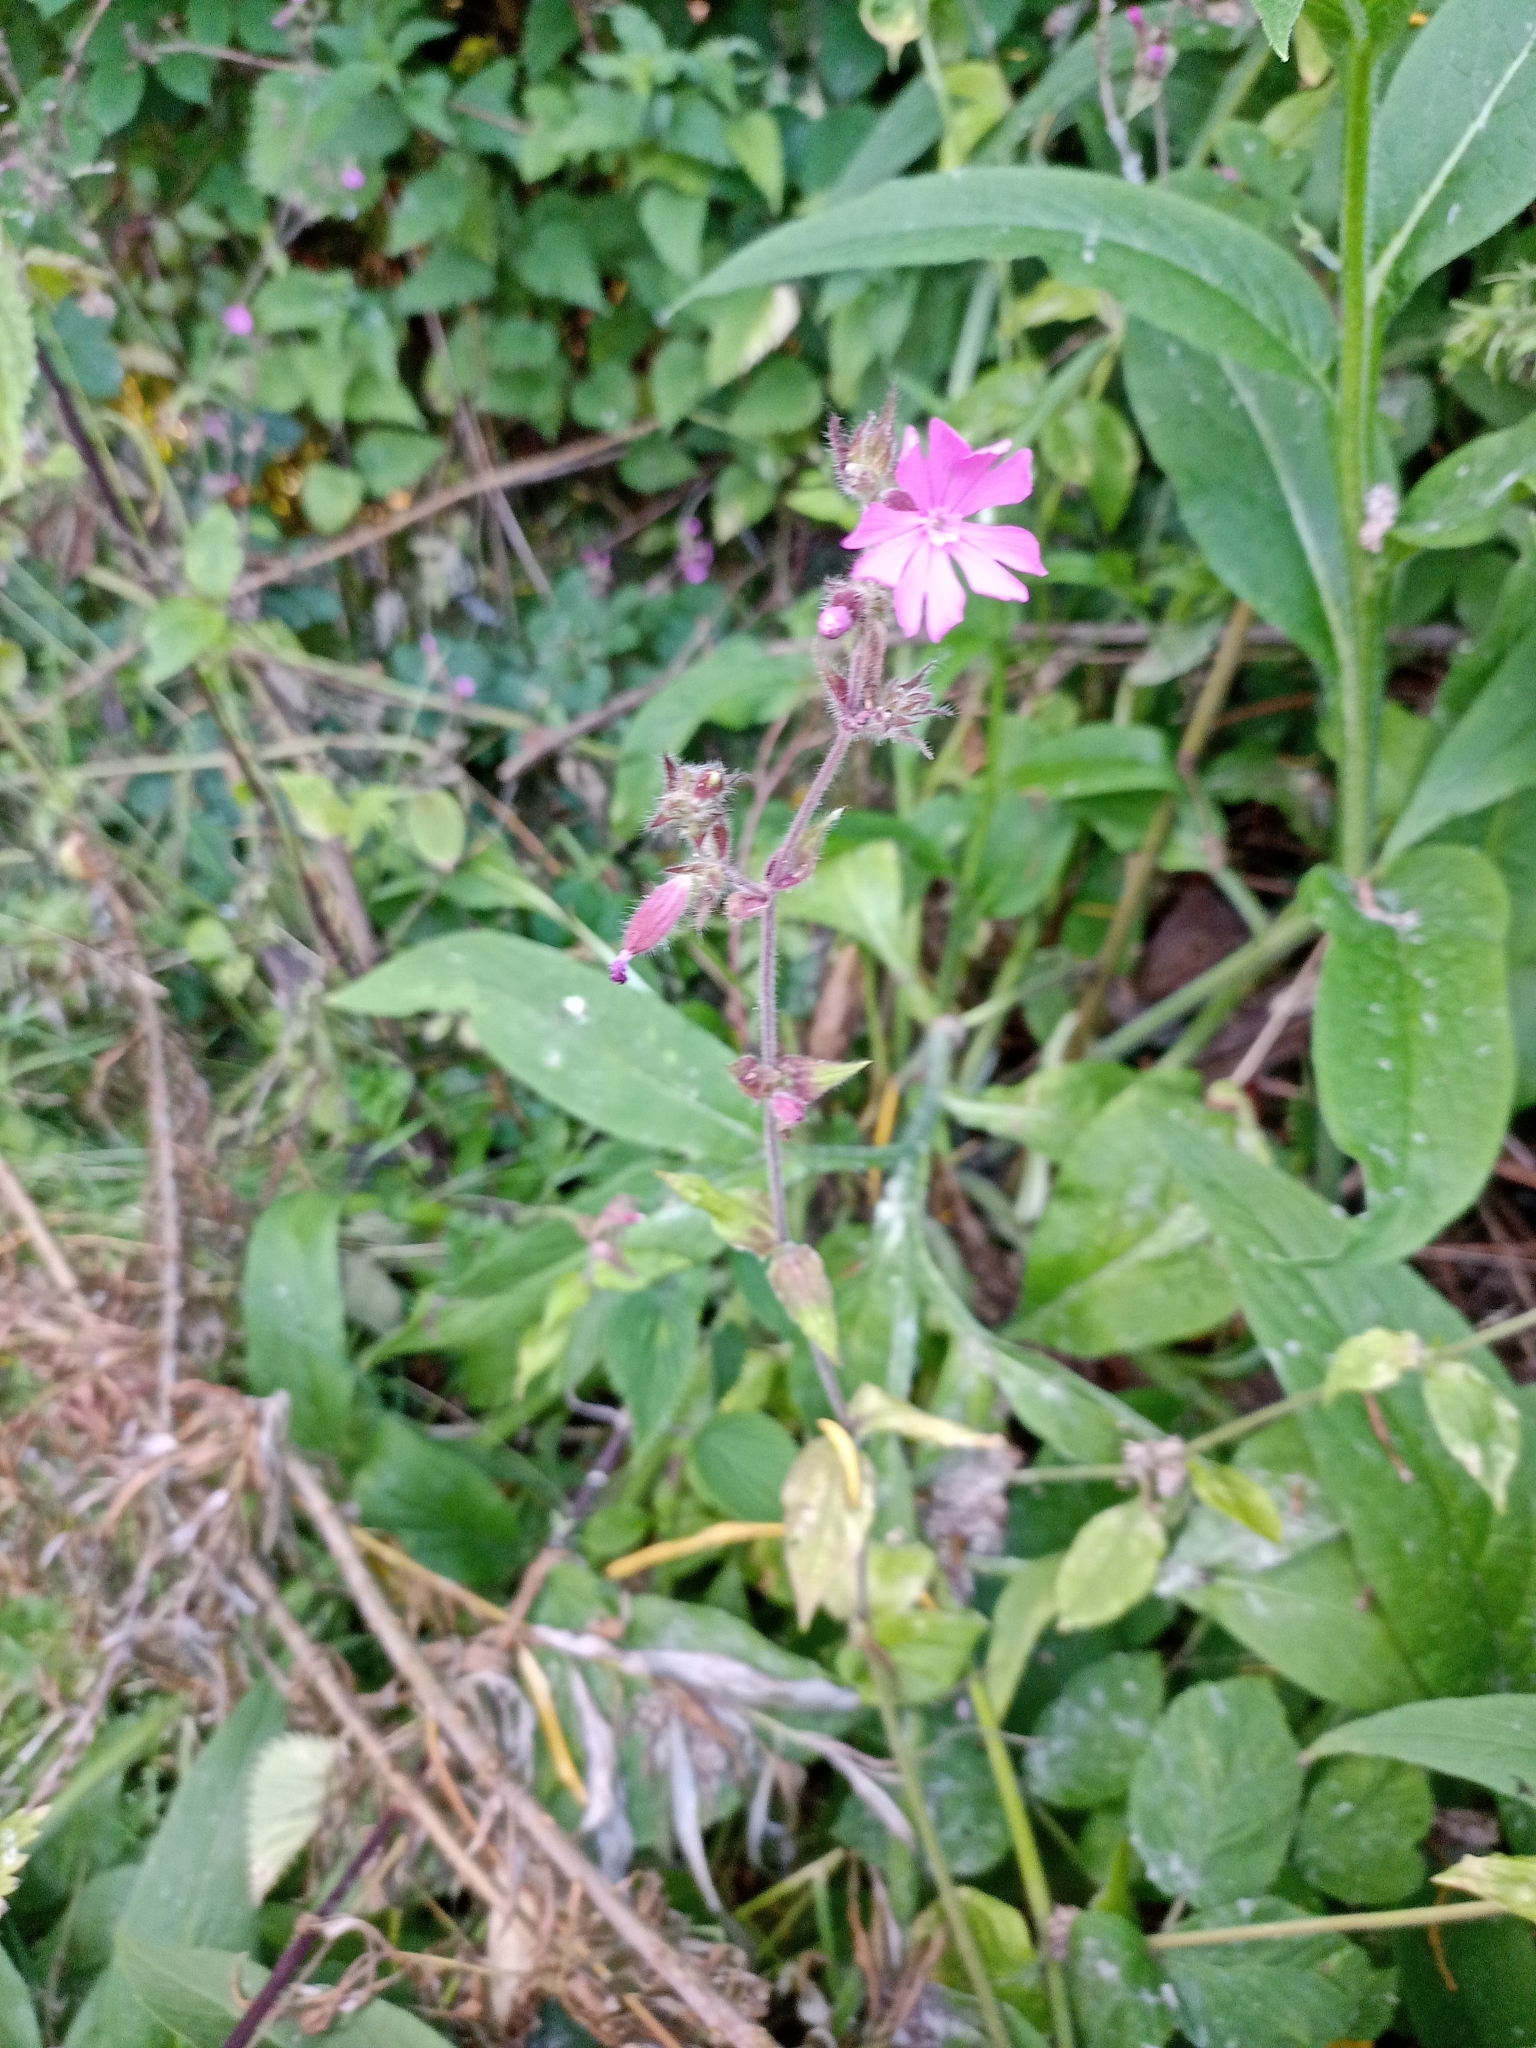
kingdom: Plantae
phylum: Tracheophyta
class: Magnoliopsida
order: Caryophyllales
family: Caryophyllaceae
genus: Silene
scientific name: Silene dioica
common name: Red campion
